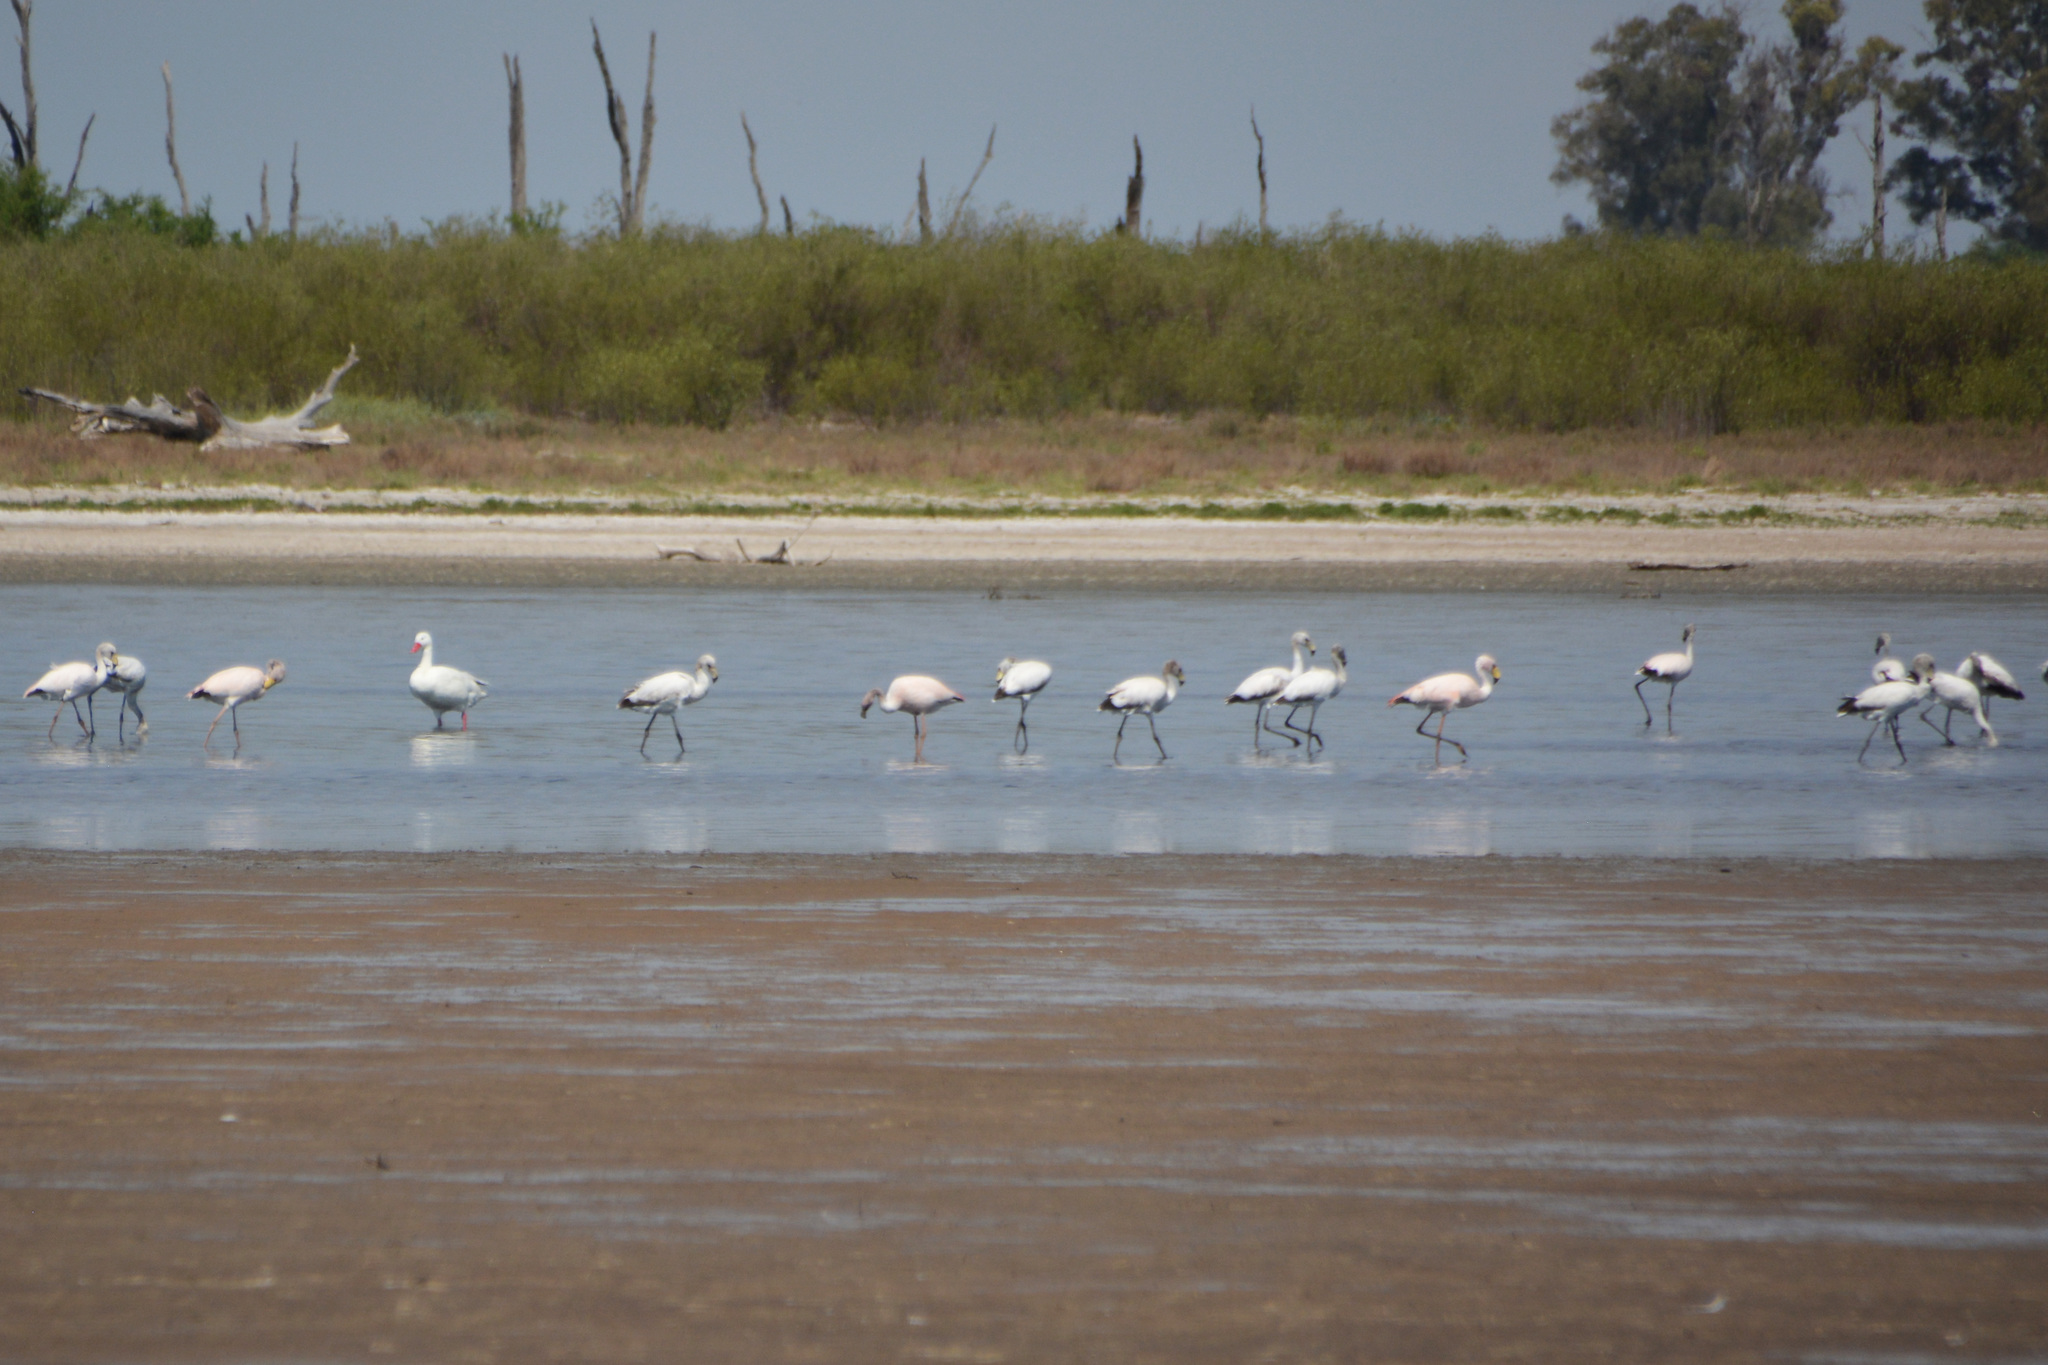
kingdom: Animalia
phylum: Chordata
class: Aves
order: Phoenicopteriformes
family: Phoenicopteridae
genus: Phoenicoparrus
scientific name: Phoenicoparrus jamesi
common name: James's flamingo
